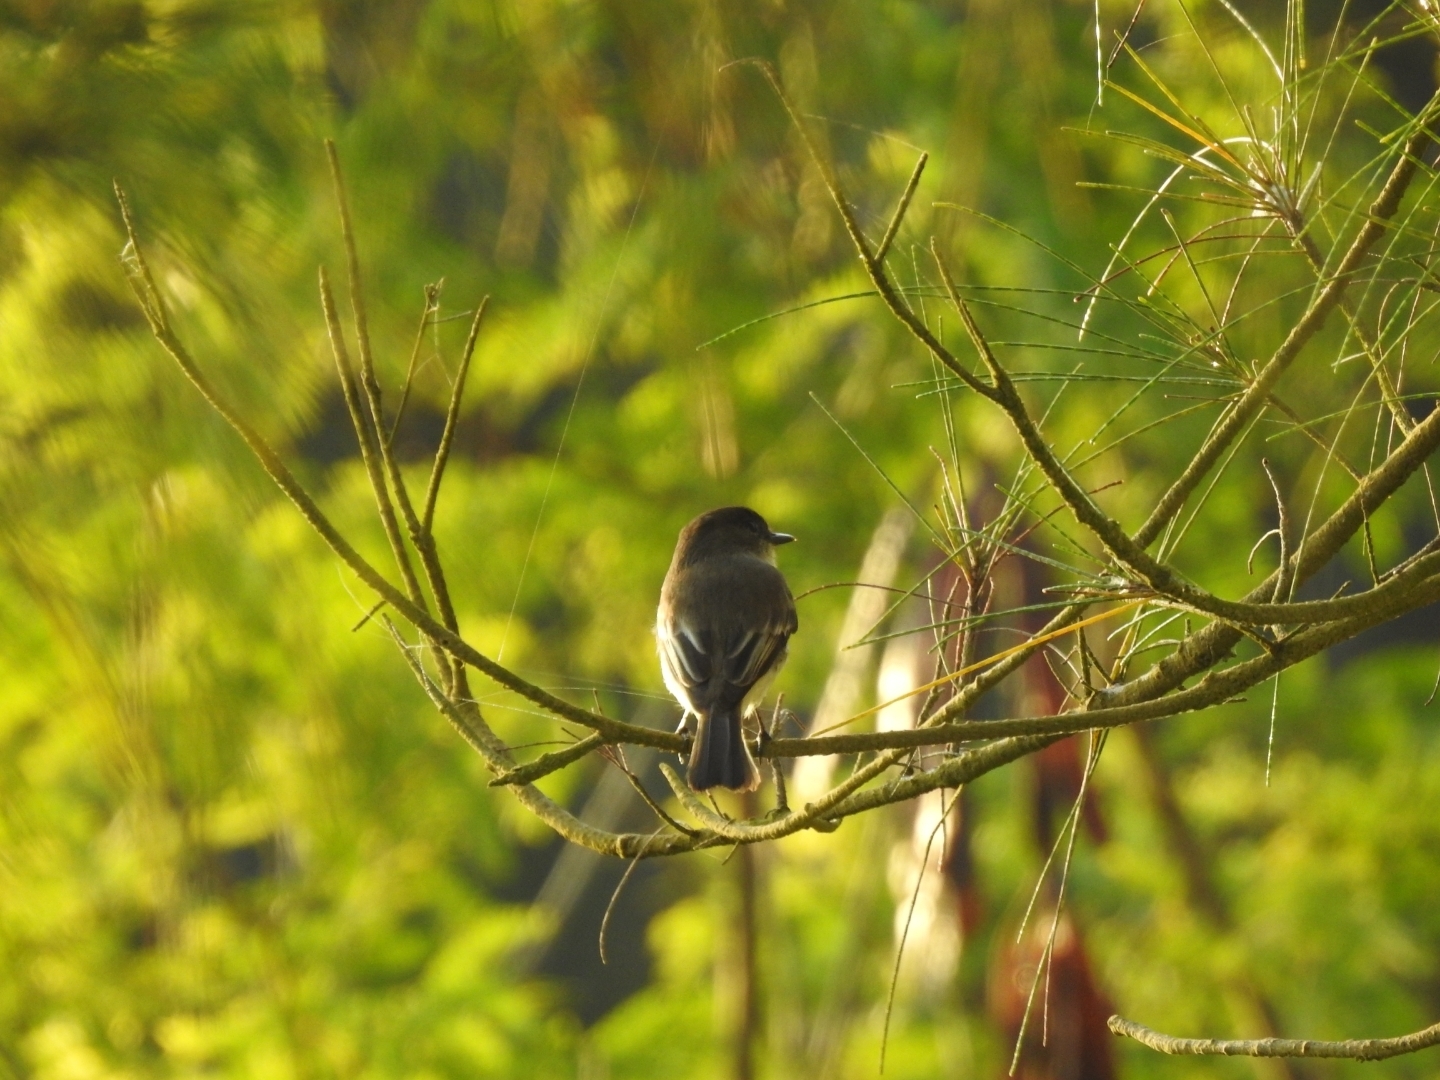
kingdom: Animalia
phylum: Chordata
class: Aves
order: Passeriformes
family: Tyrannidae
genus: Sayornis
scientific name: Sayornis phoebe
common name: Eastern phoebe
